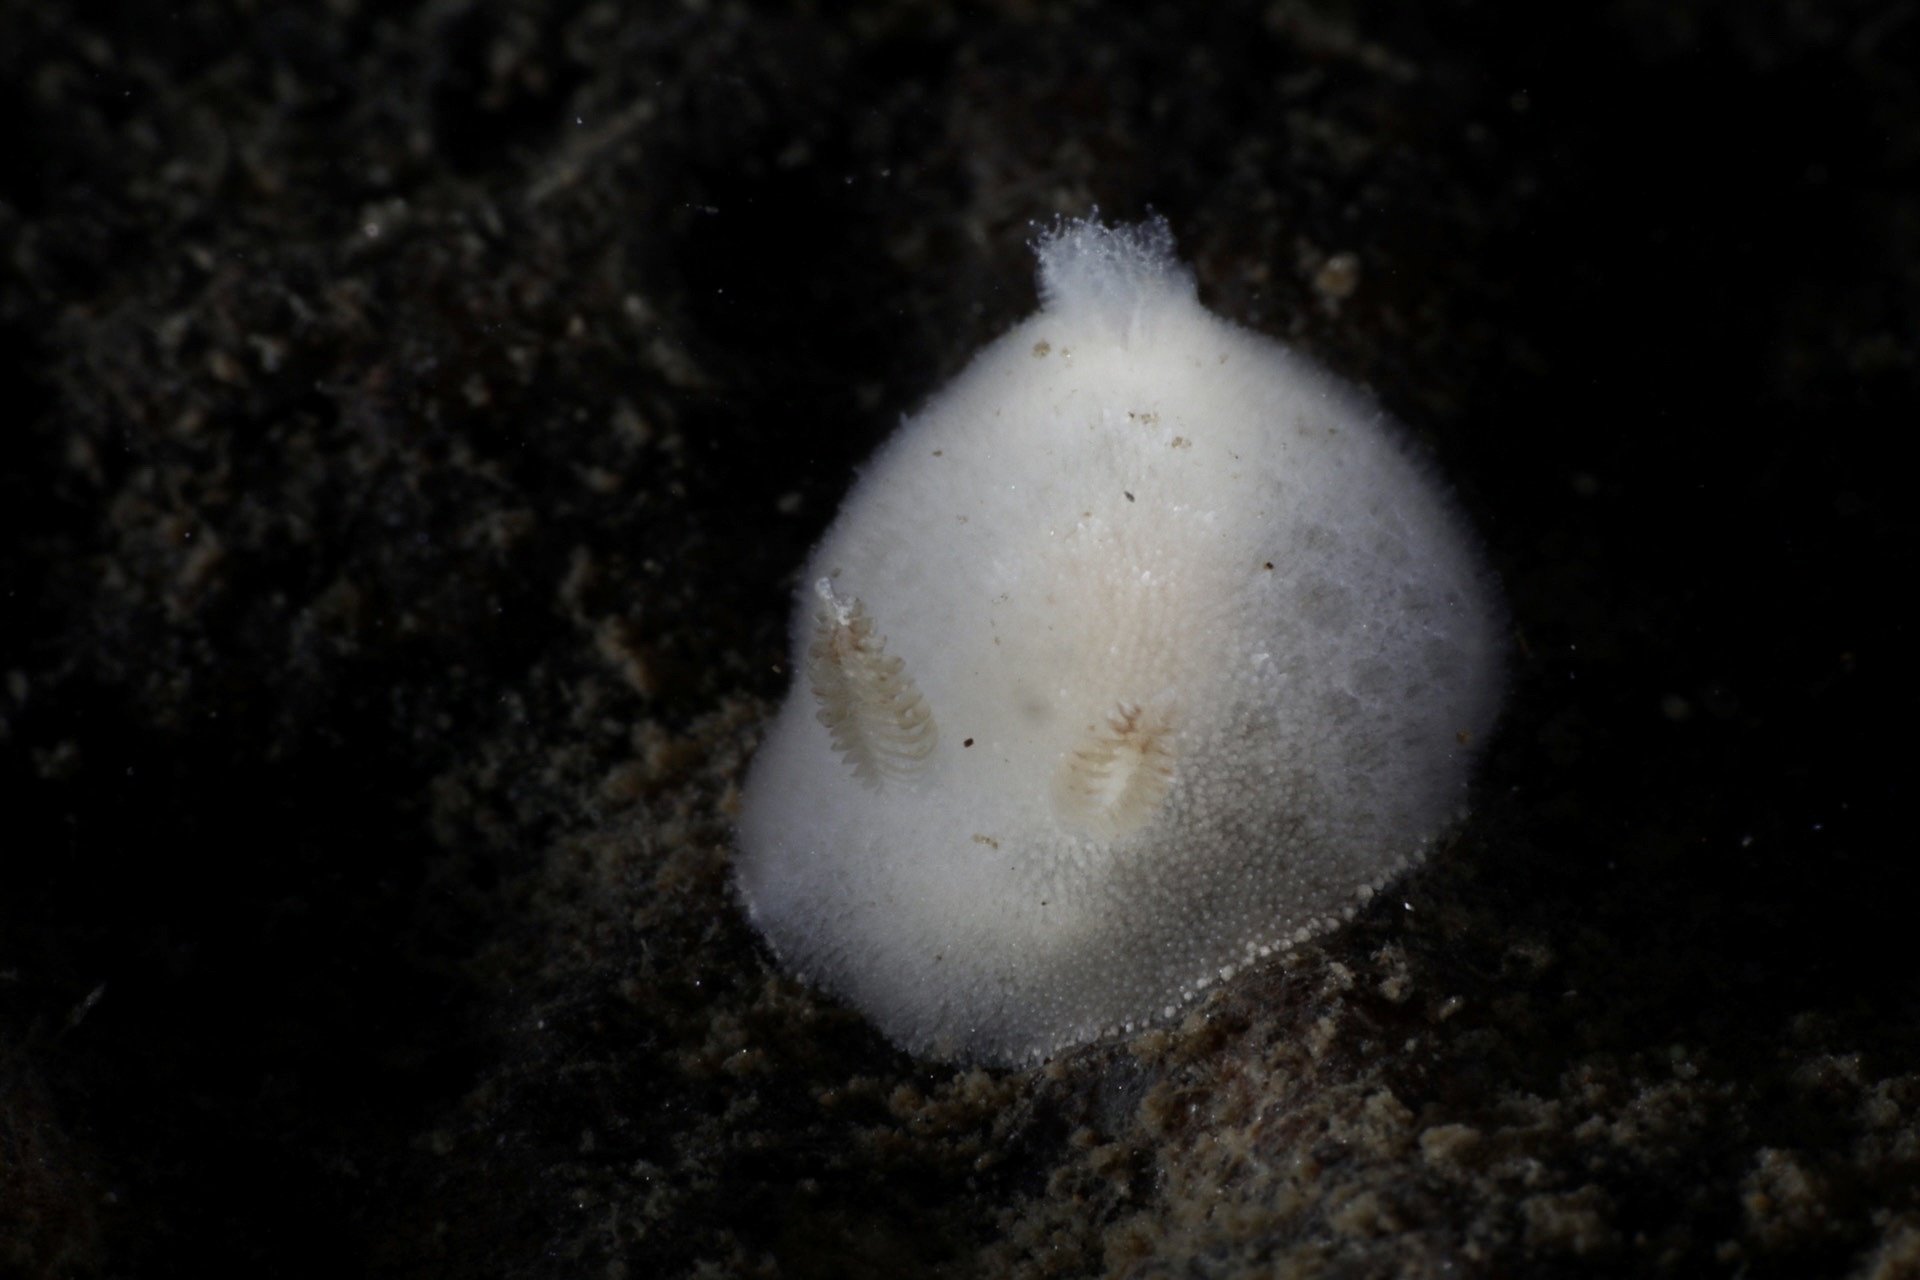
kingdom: Animalia
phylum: Mollusca
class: Gastropoda
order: Nudibranchia
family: Discodorididae
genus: Jorunna
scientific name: Jorunna tomentosa
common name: Grey sea slug
